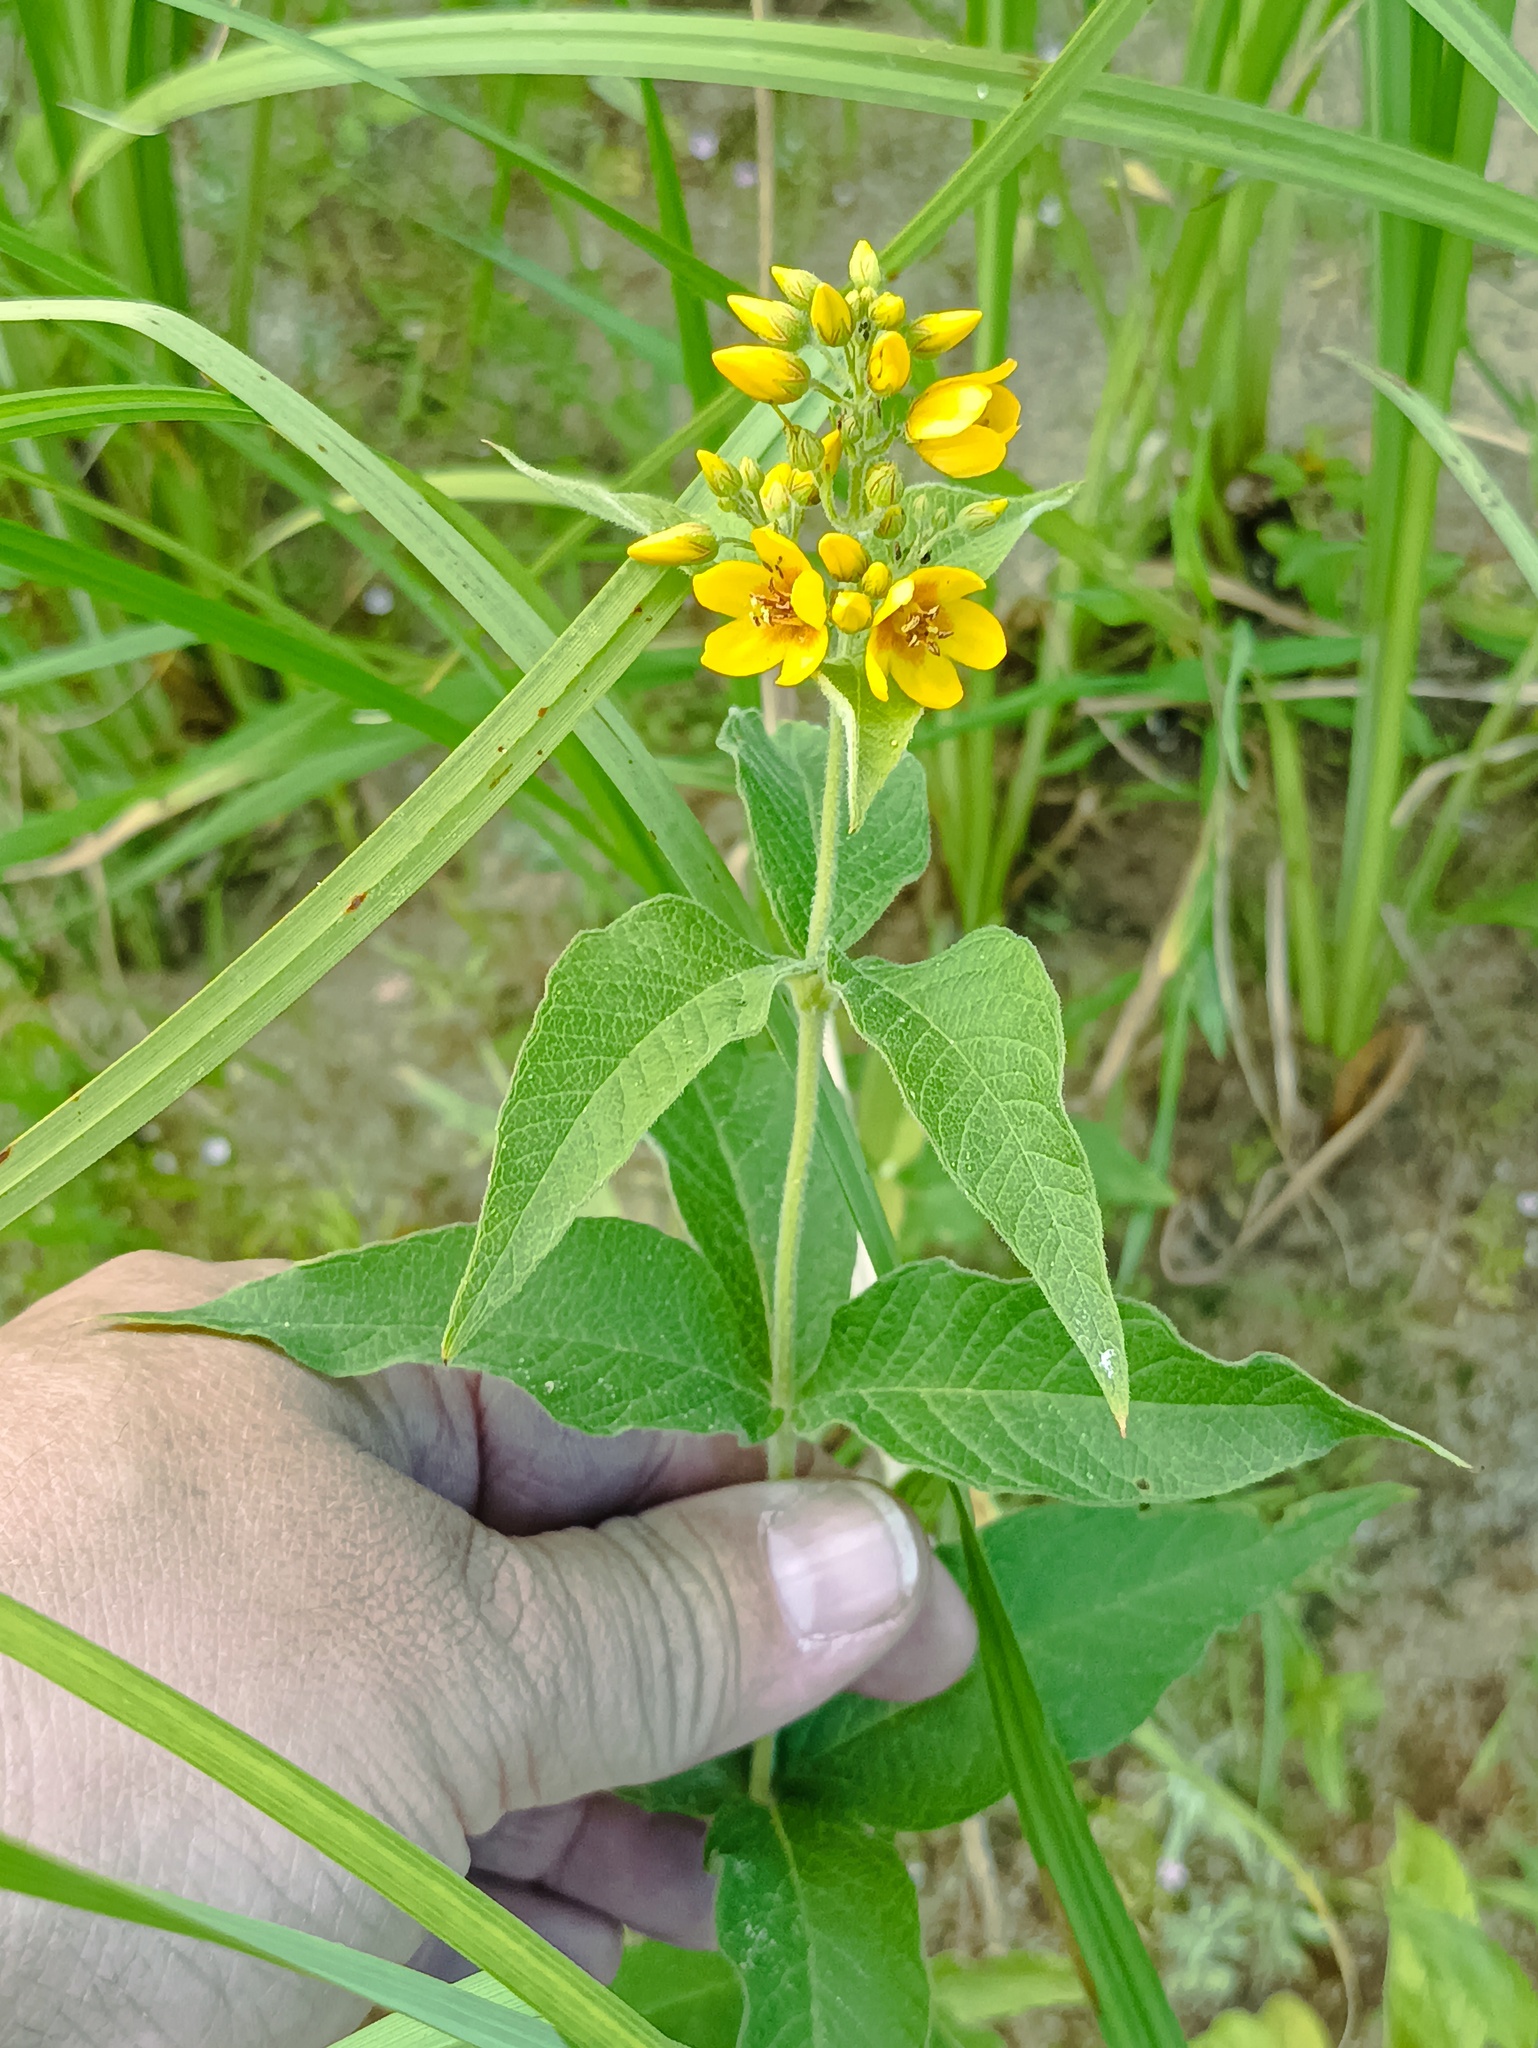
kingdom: Plantae
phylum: Tracheophyta
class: Magnoliopsida
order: Ericales
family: Primulaceae
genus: Lysimachia
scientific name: Lysimachia vulgaris
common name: Yellow loosestrife
